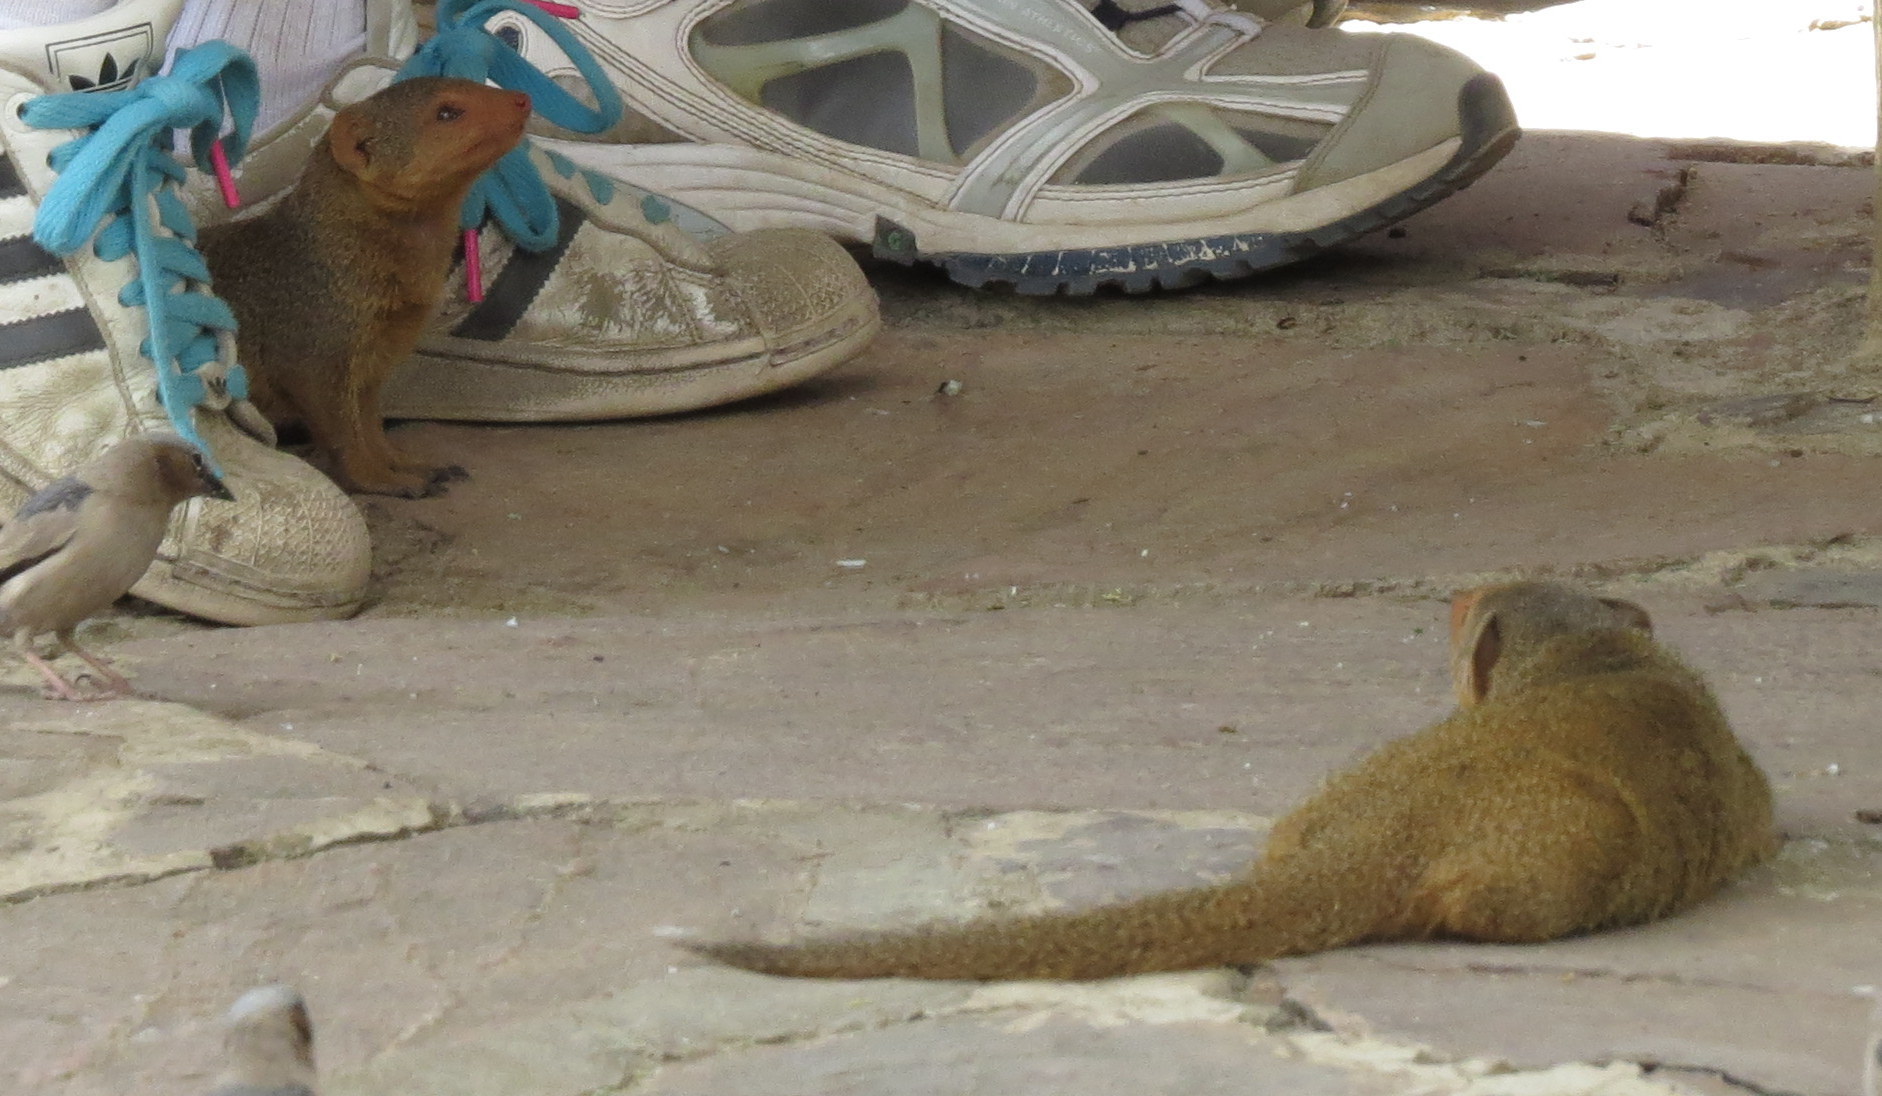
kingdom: Animalia
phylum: Chordata
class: Mammalia
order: Carnivora
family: Herpestidae
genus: Helogale
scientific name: Helogale parvula
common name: Common dwarf mongoose
